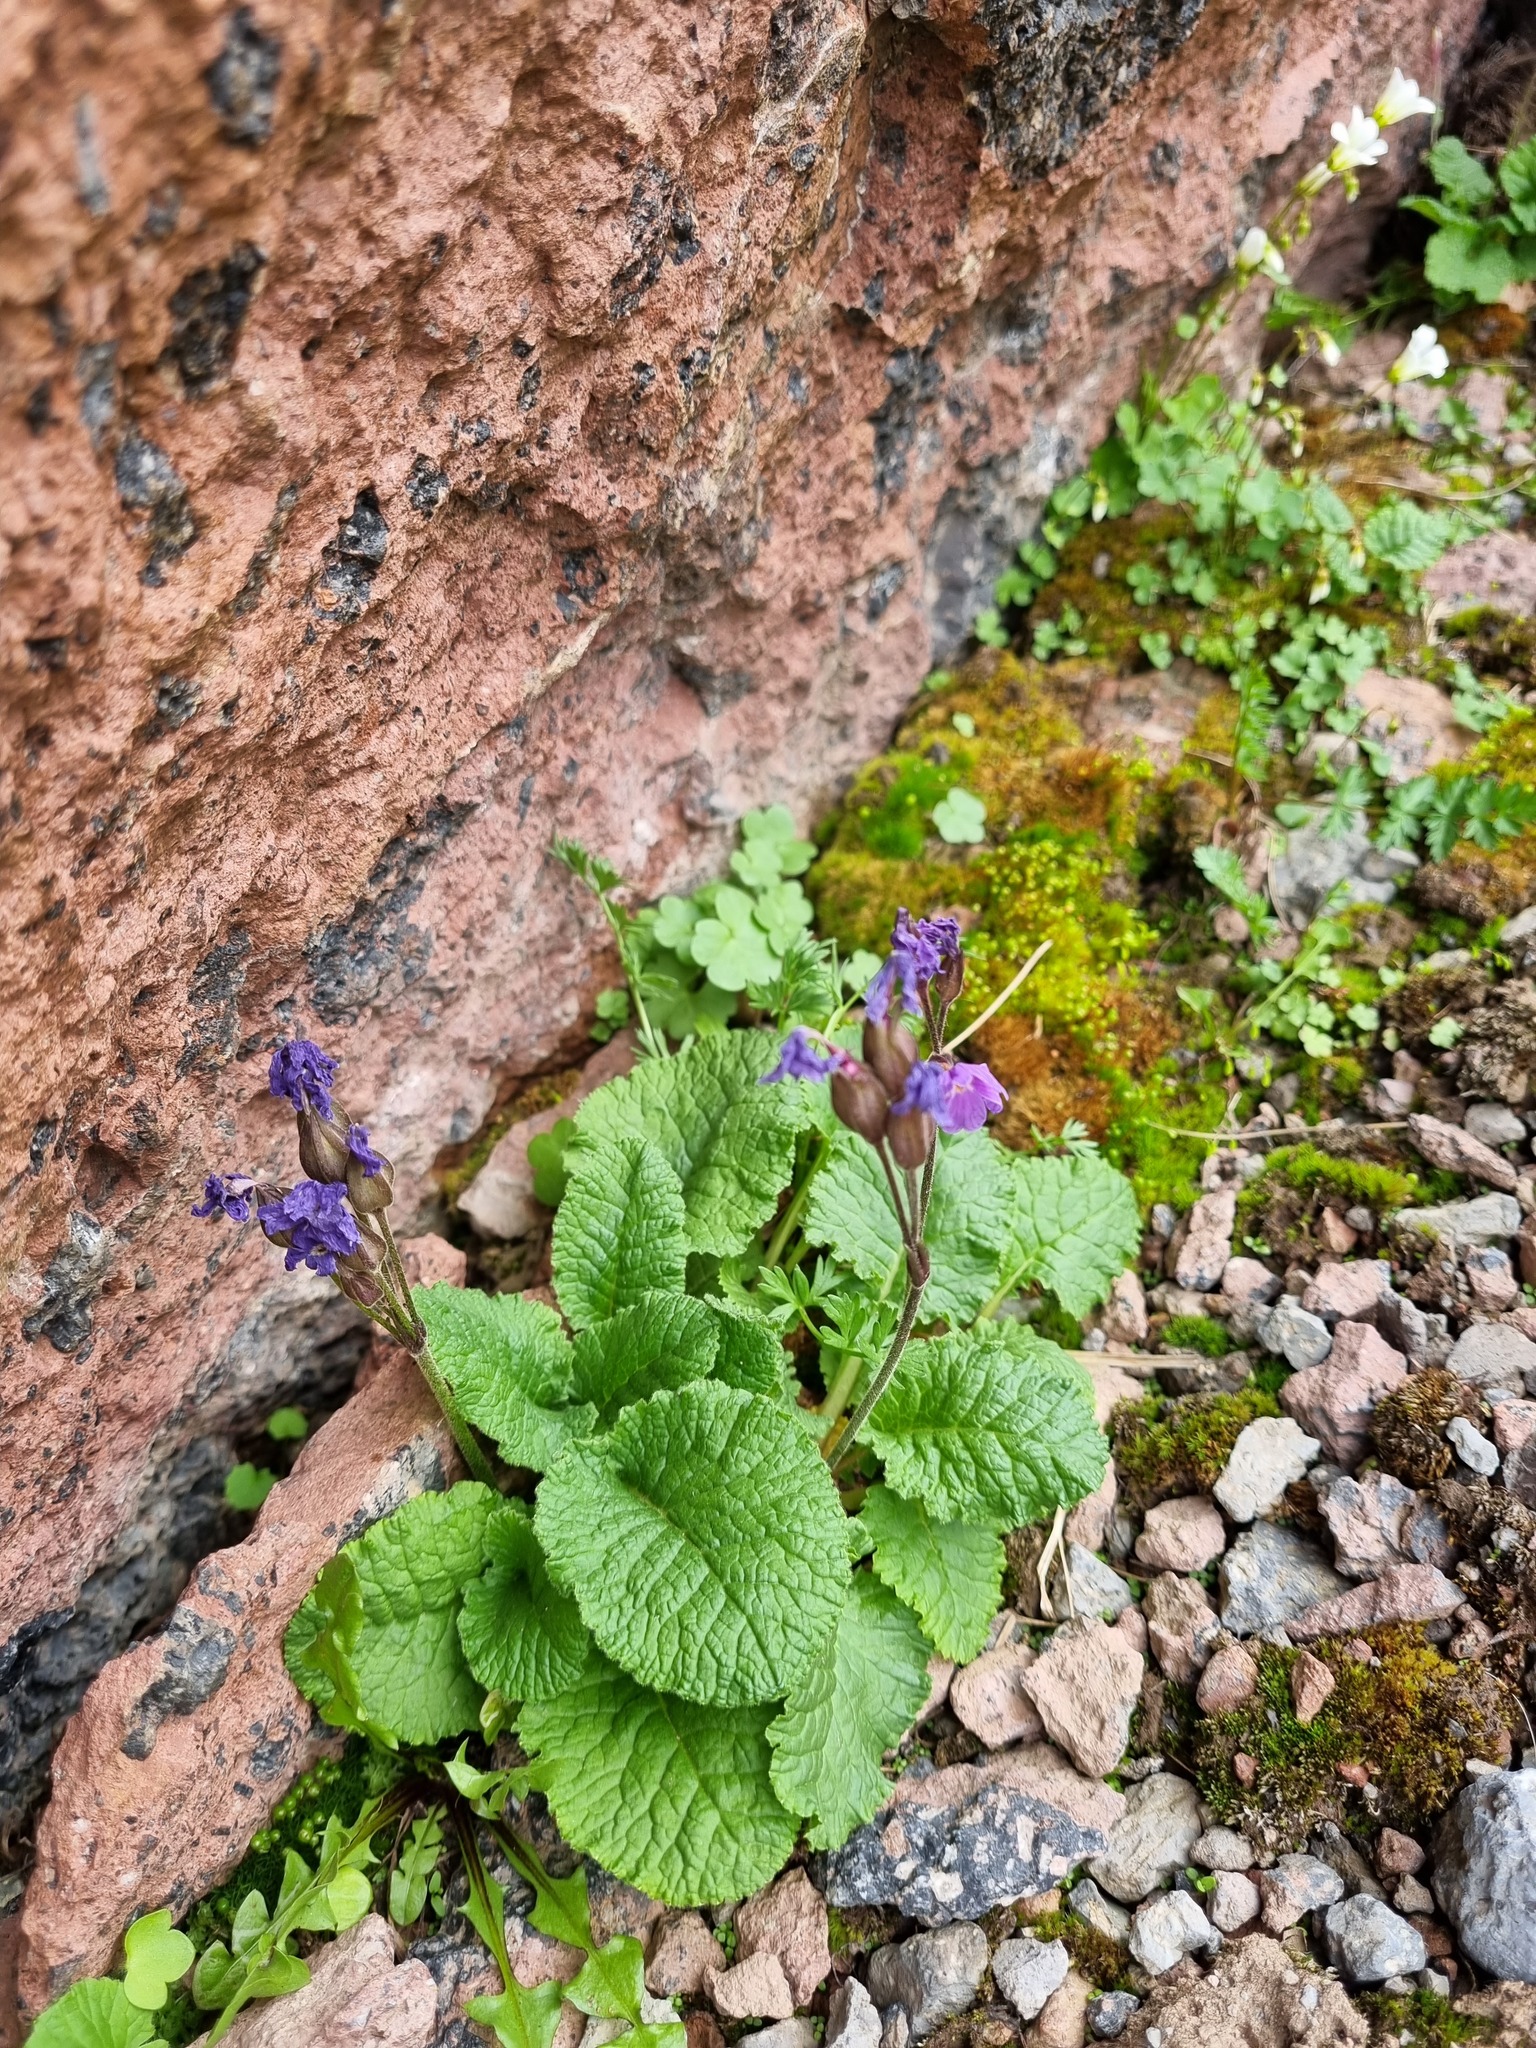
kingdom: Plantae
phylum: Tracheophyta
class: Magnoliopsida
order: Ericales
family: Primulaceae
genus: Primula
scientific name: Primula amoena
